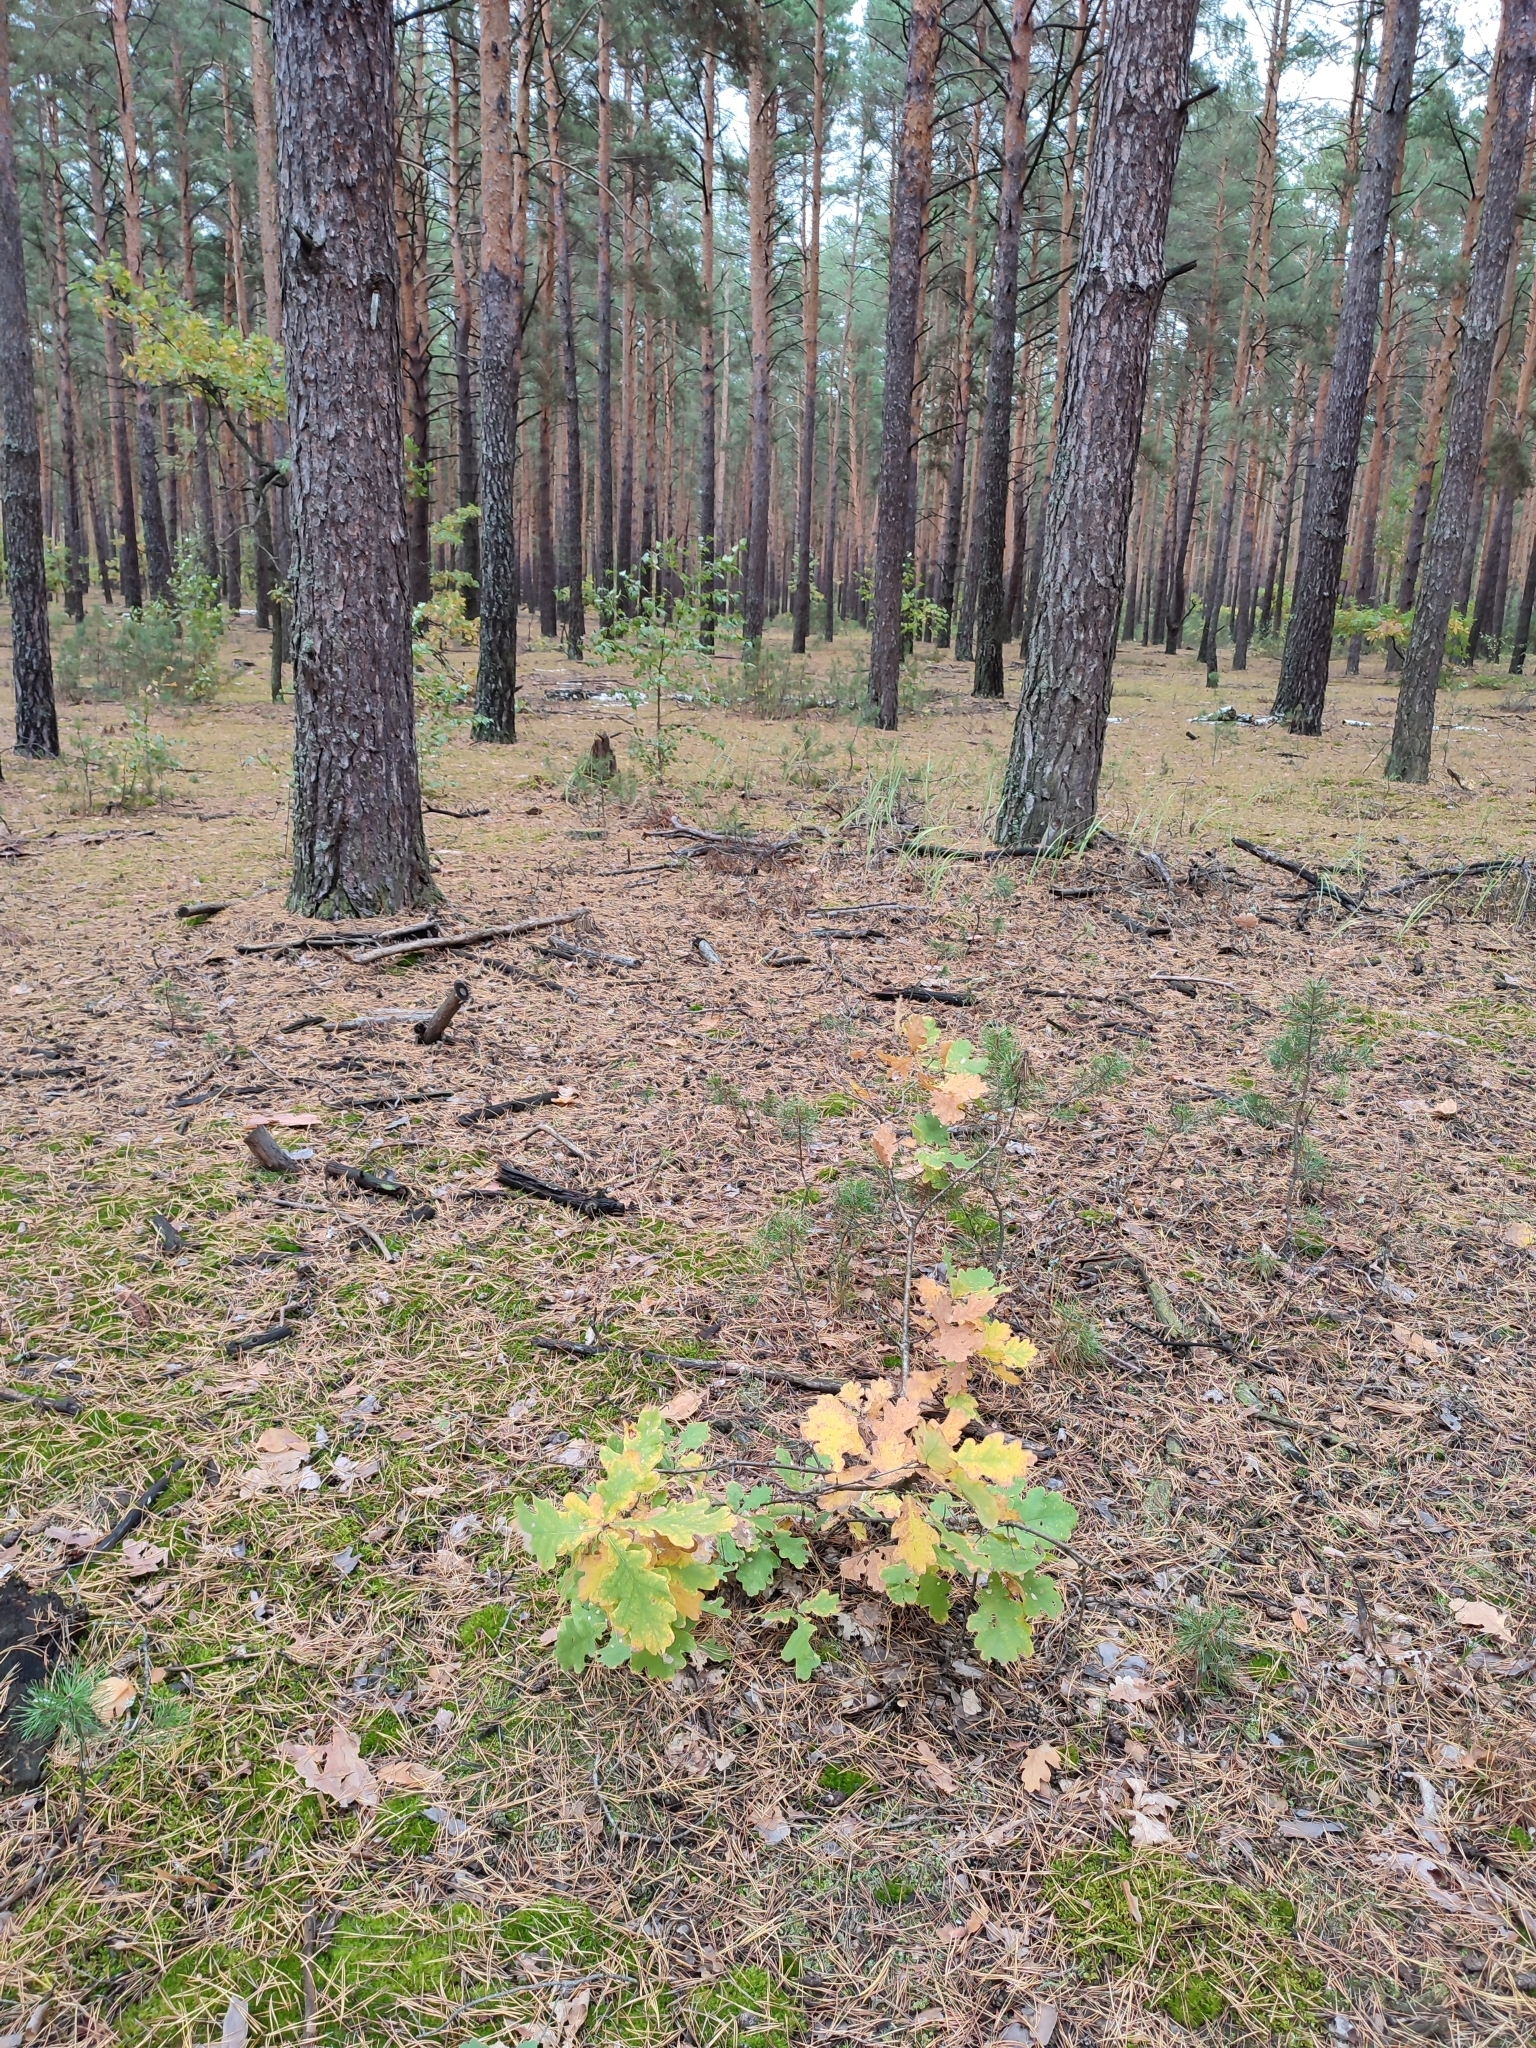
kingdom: Plantae
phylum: Tracheophyta
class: Magnoliopsida
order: Fagales
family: Fagaceae
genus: Quercus
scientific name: Quercus robur
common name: Pedunculate oak
